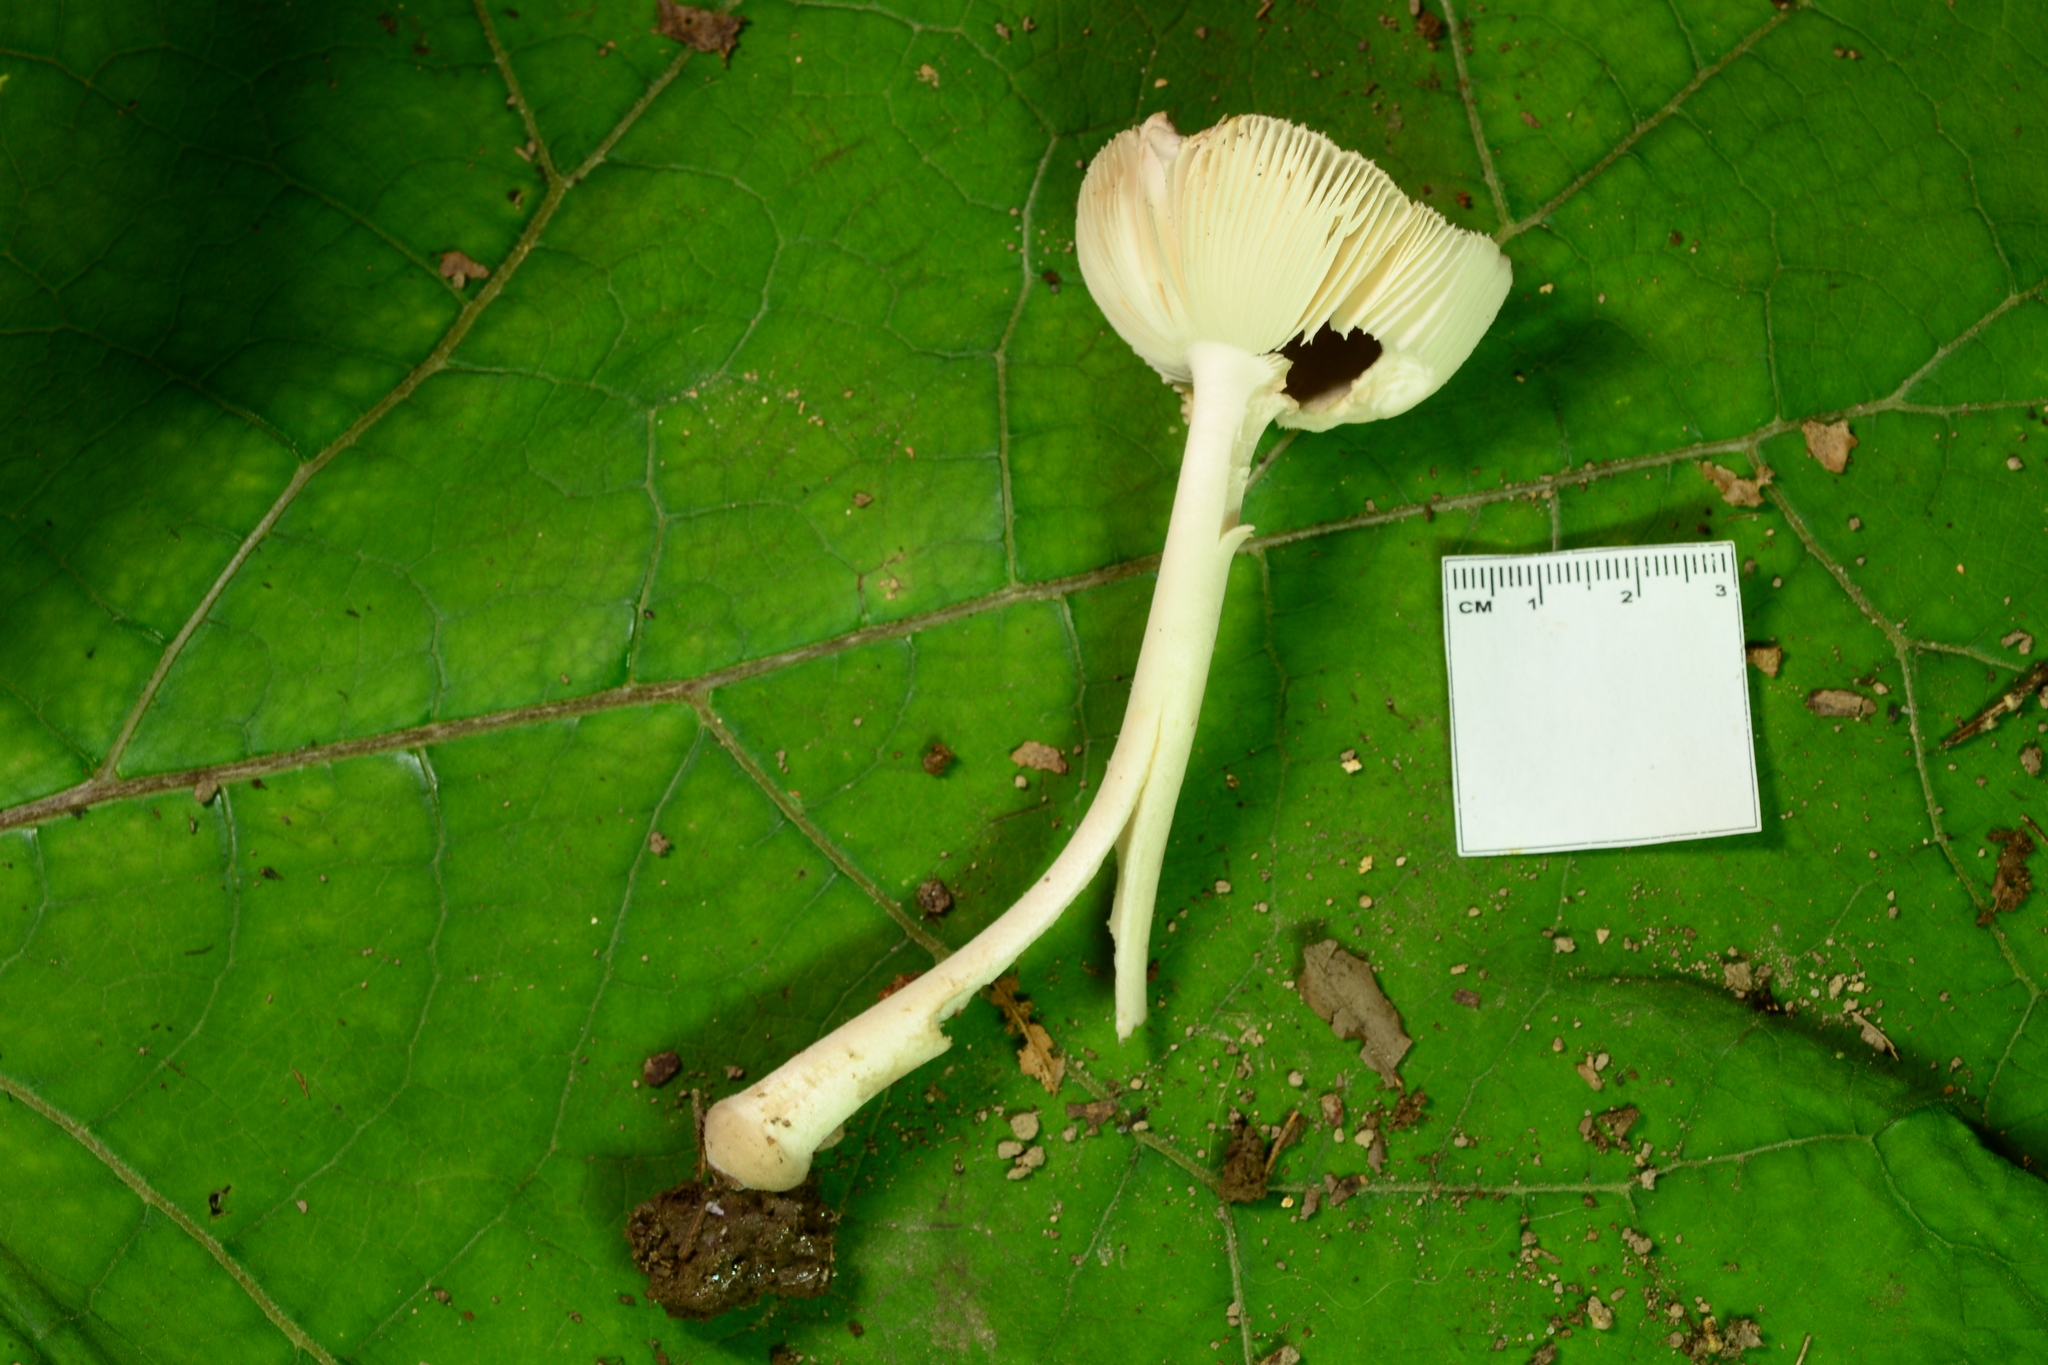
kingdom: Fungi
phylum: Basidiomycota
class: Agaricomycetes
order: Agaricales
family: Amanitaceae
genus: Amanita
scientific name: Amanita farinosa
